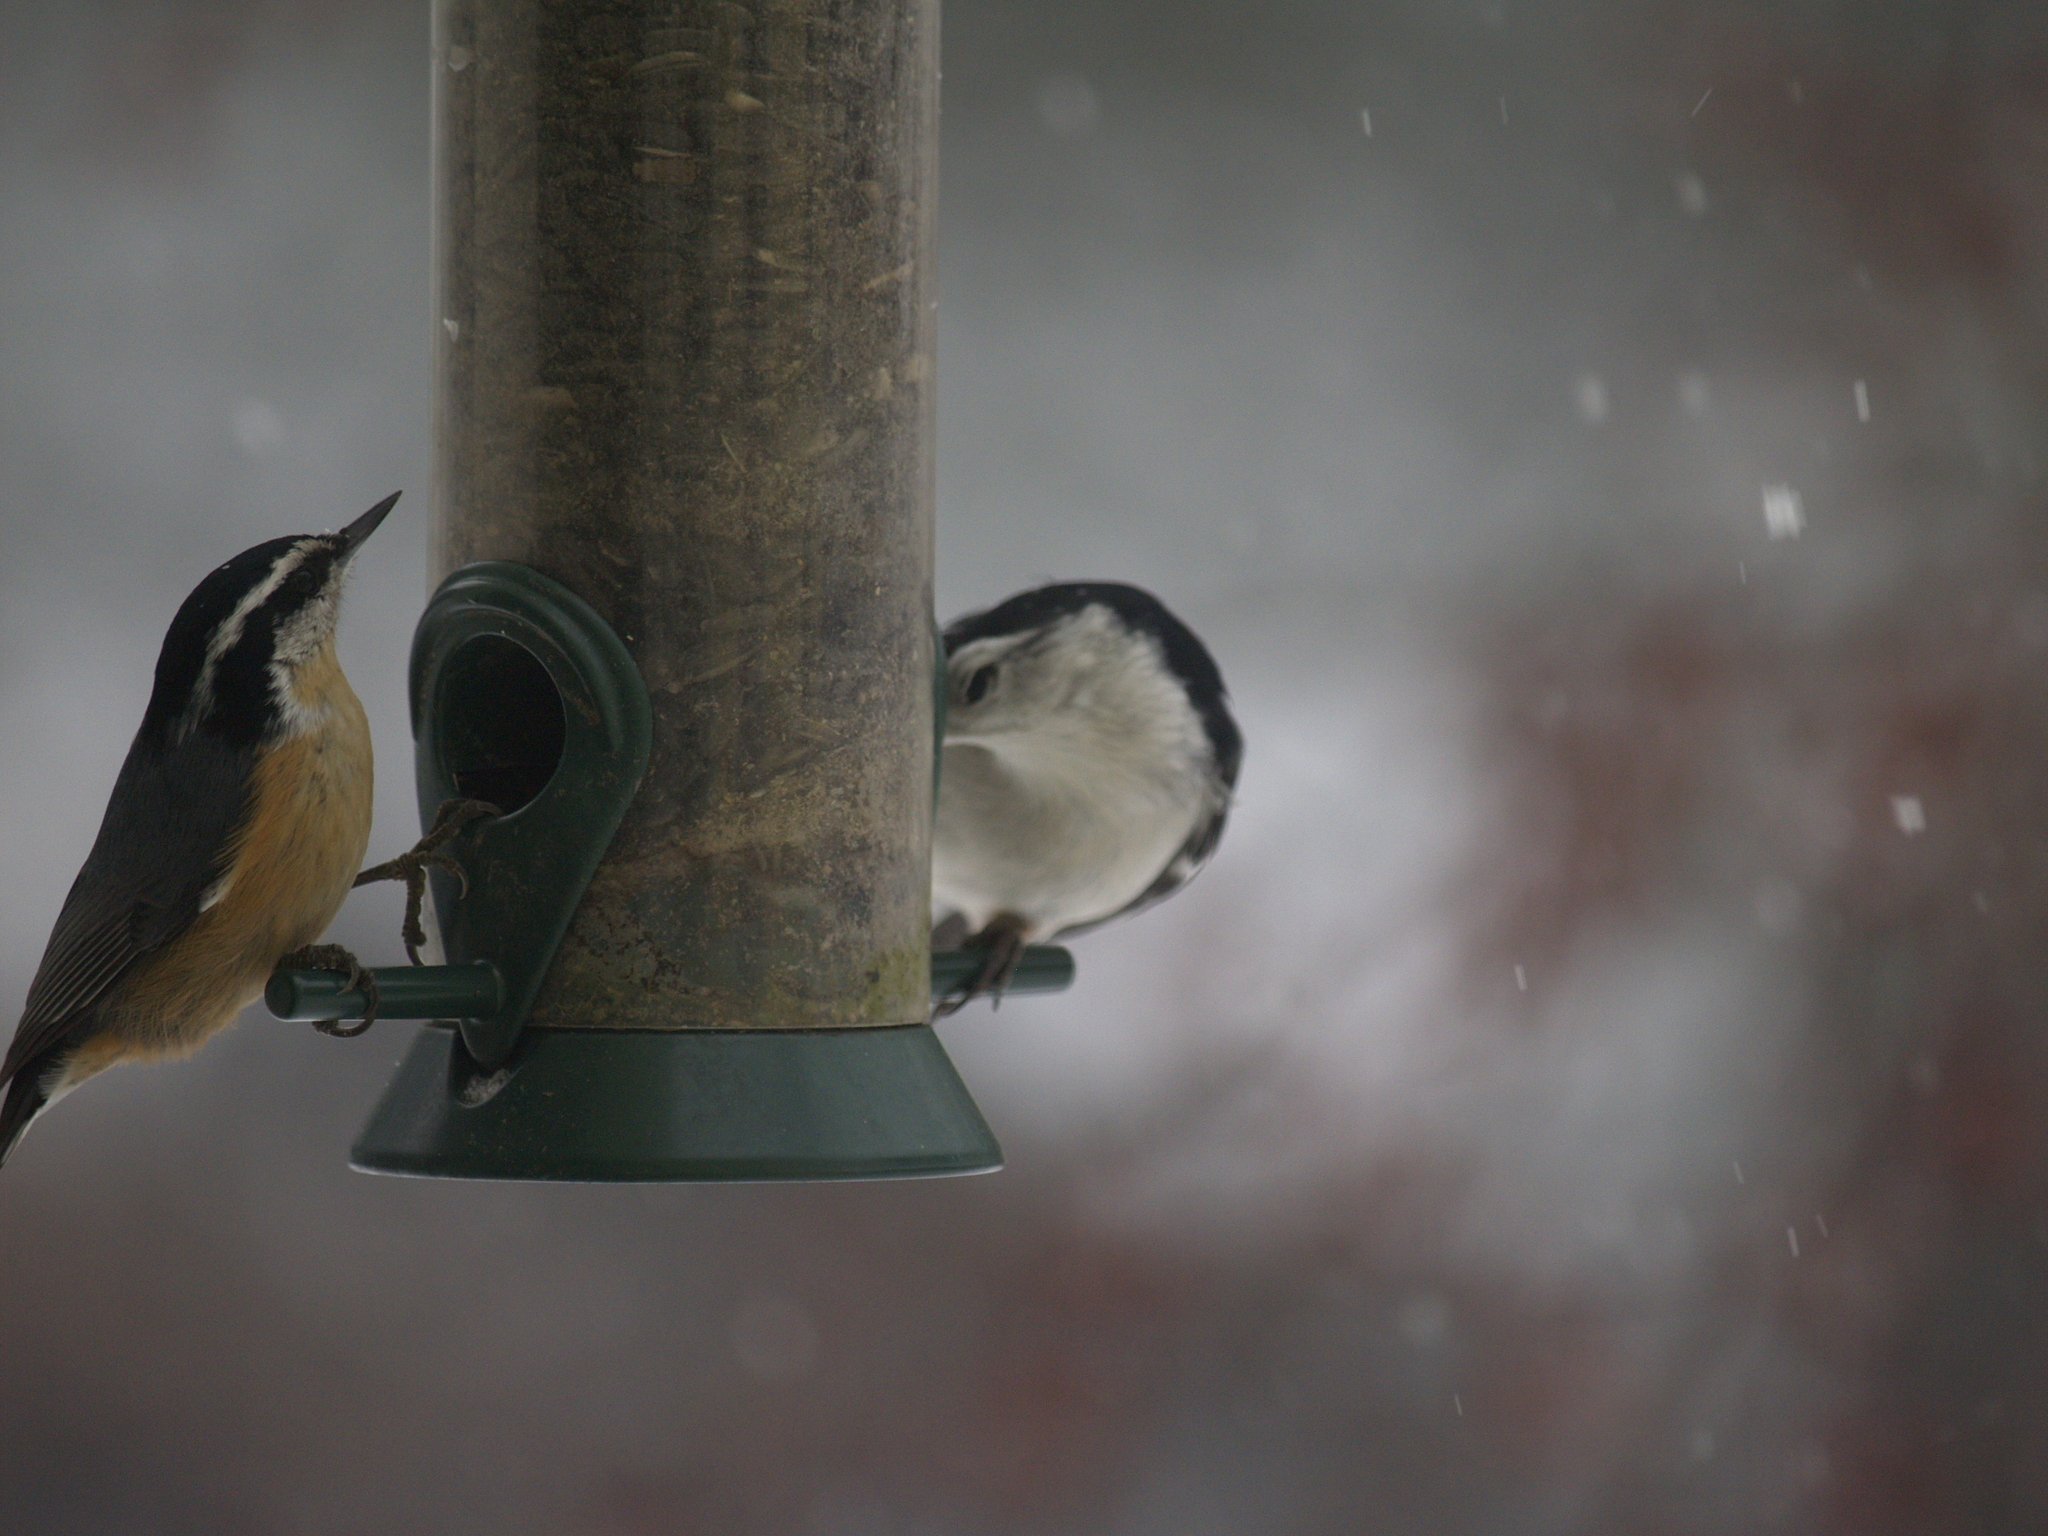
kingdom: Animalia
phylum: Chordata
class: Aves
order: Passeriformes
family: Sittidae
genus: Sitta
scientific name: Sitta canadensis
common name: Red-breasted nuthatch
